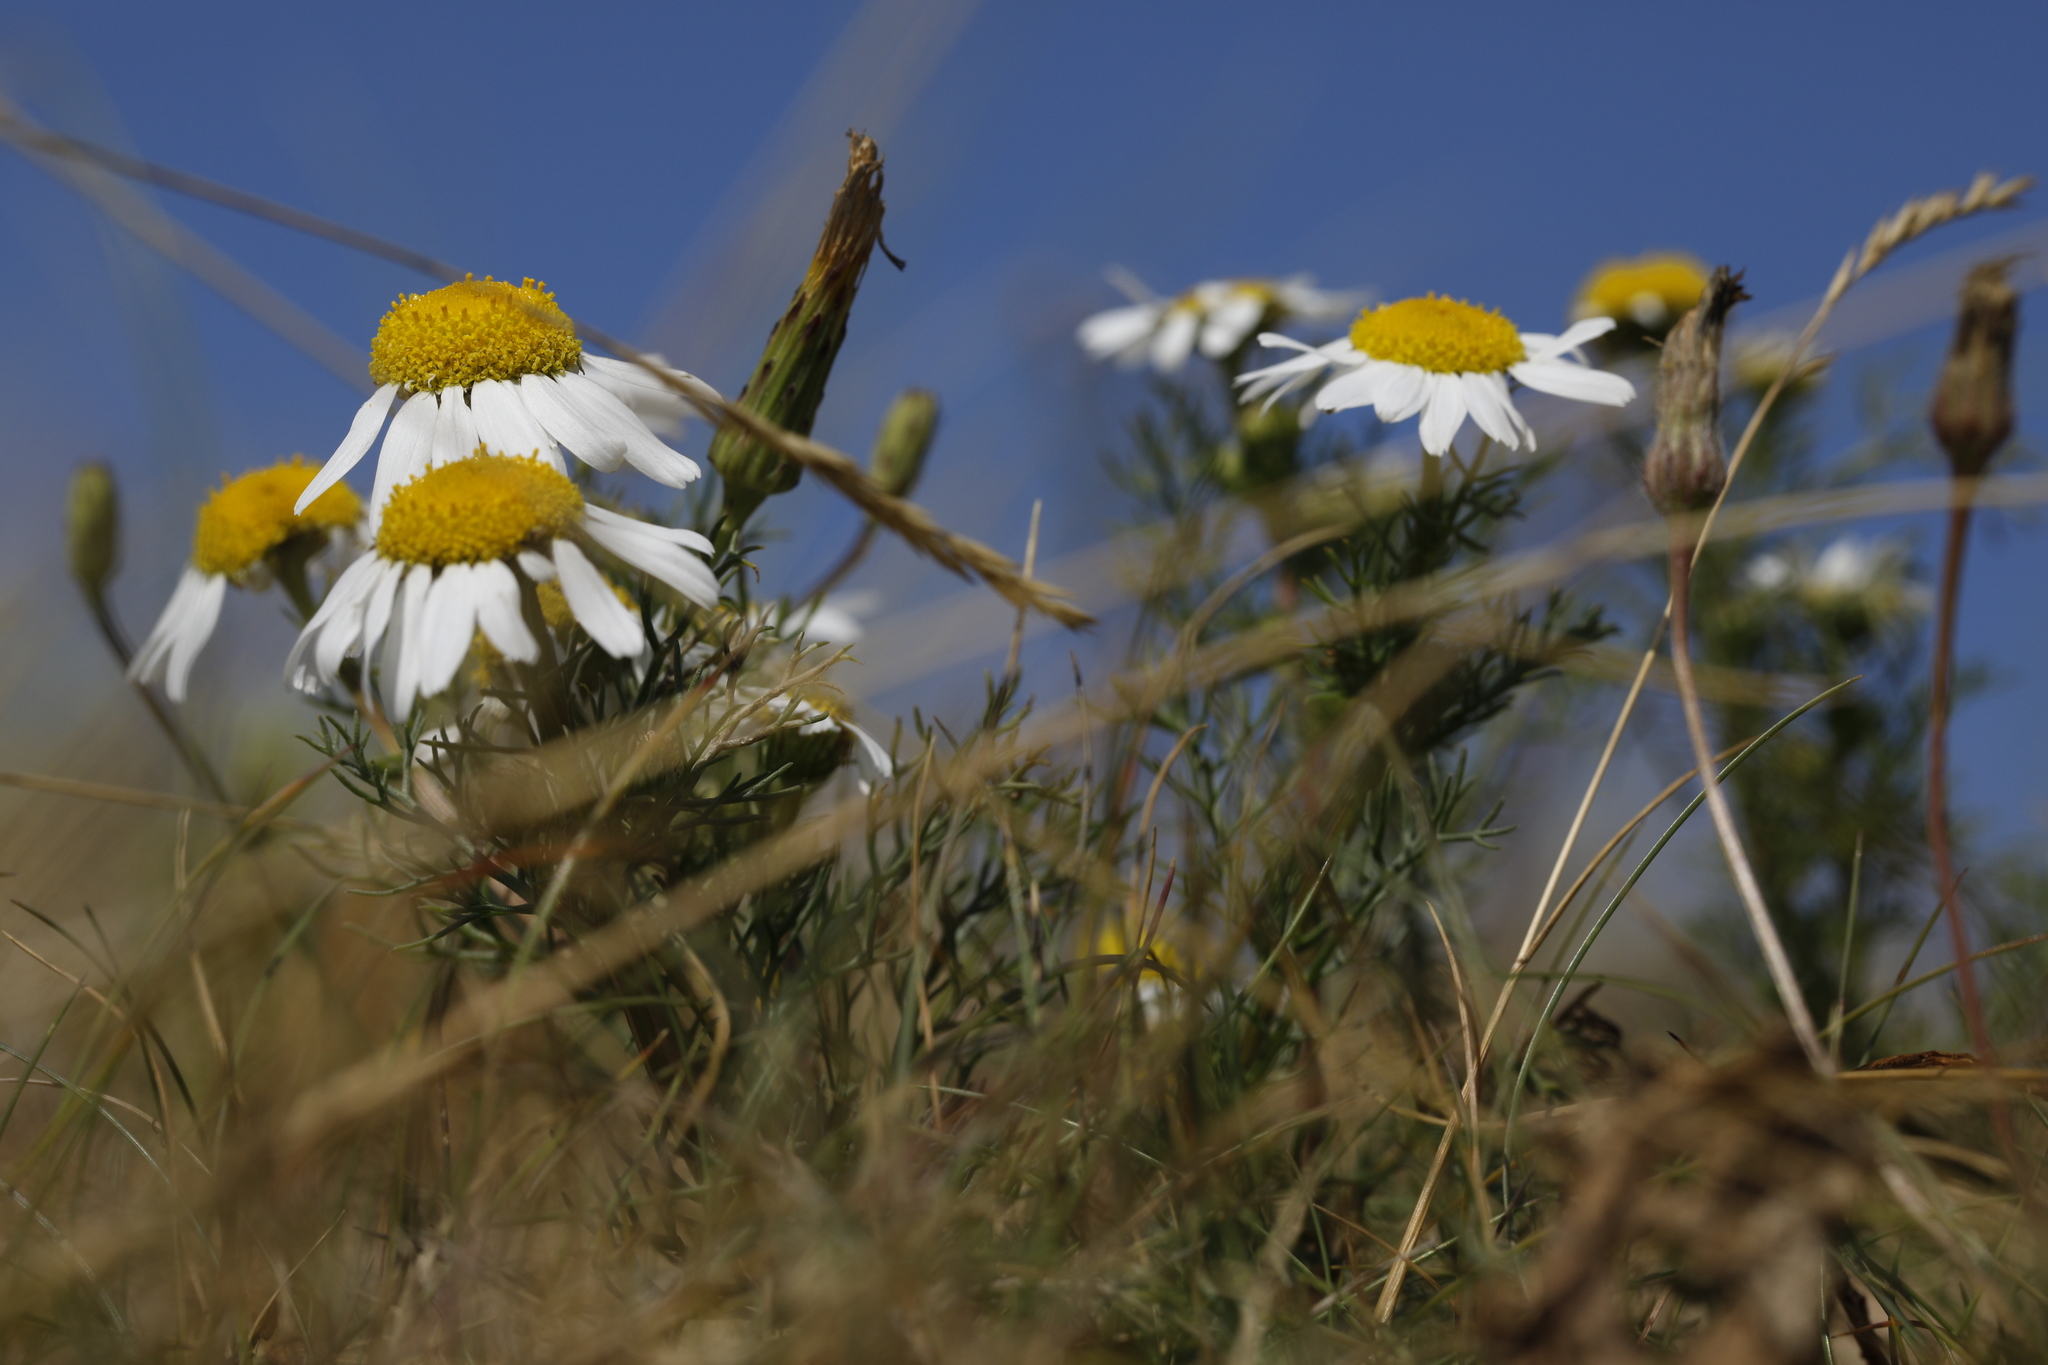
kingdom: Plantae
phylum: Tracheophyta
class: Magnoliopsida
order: Asterales
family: Asteraceae
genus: Tripleurospermum
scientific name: Tripleurospermum maritimum
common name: Sea mayweed
